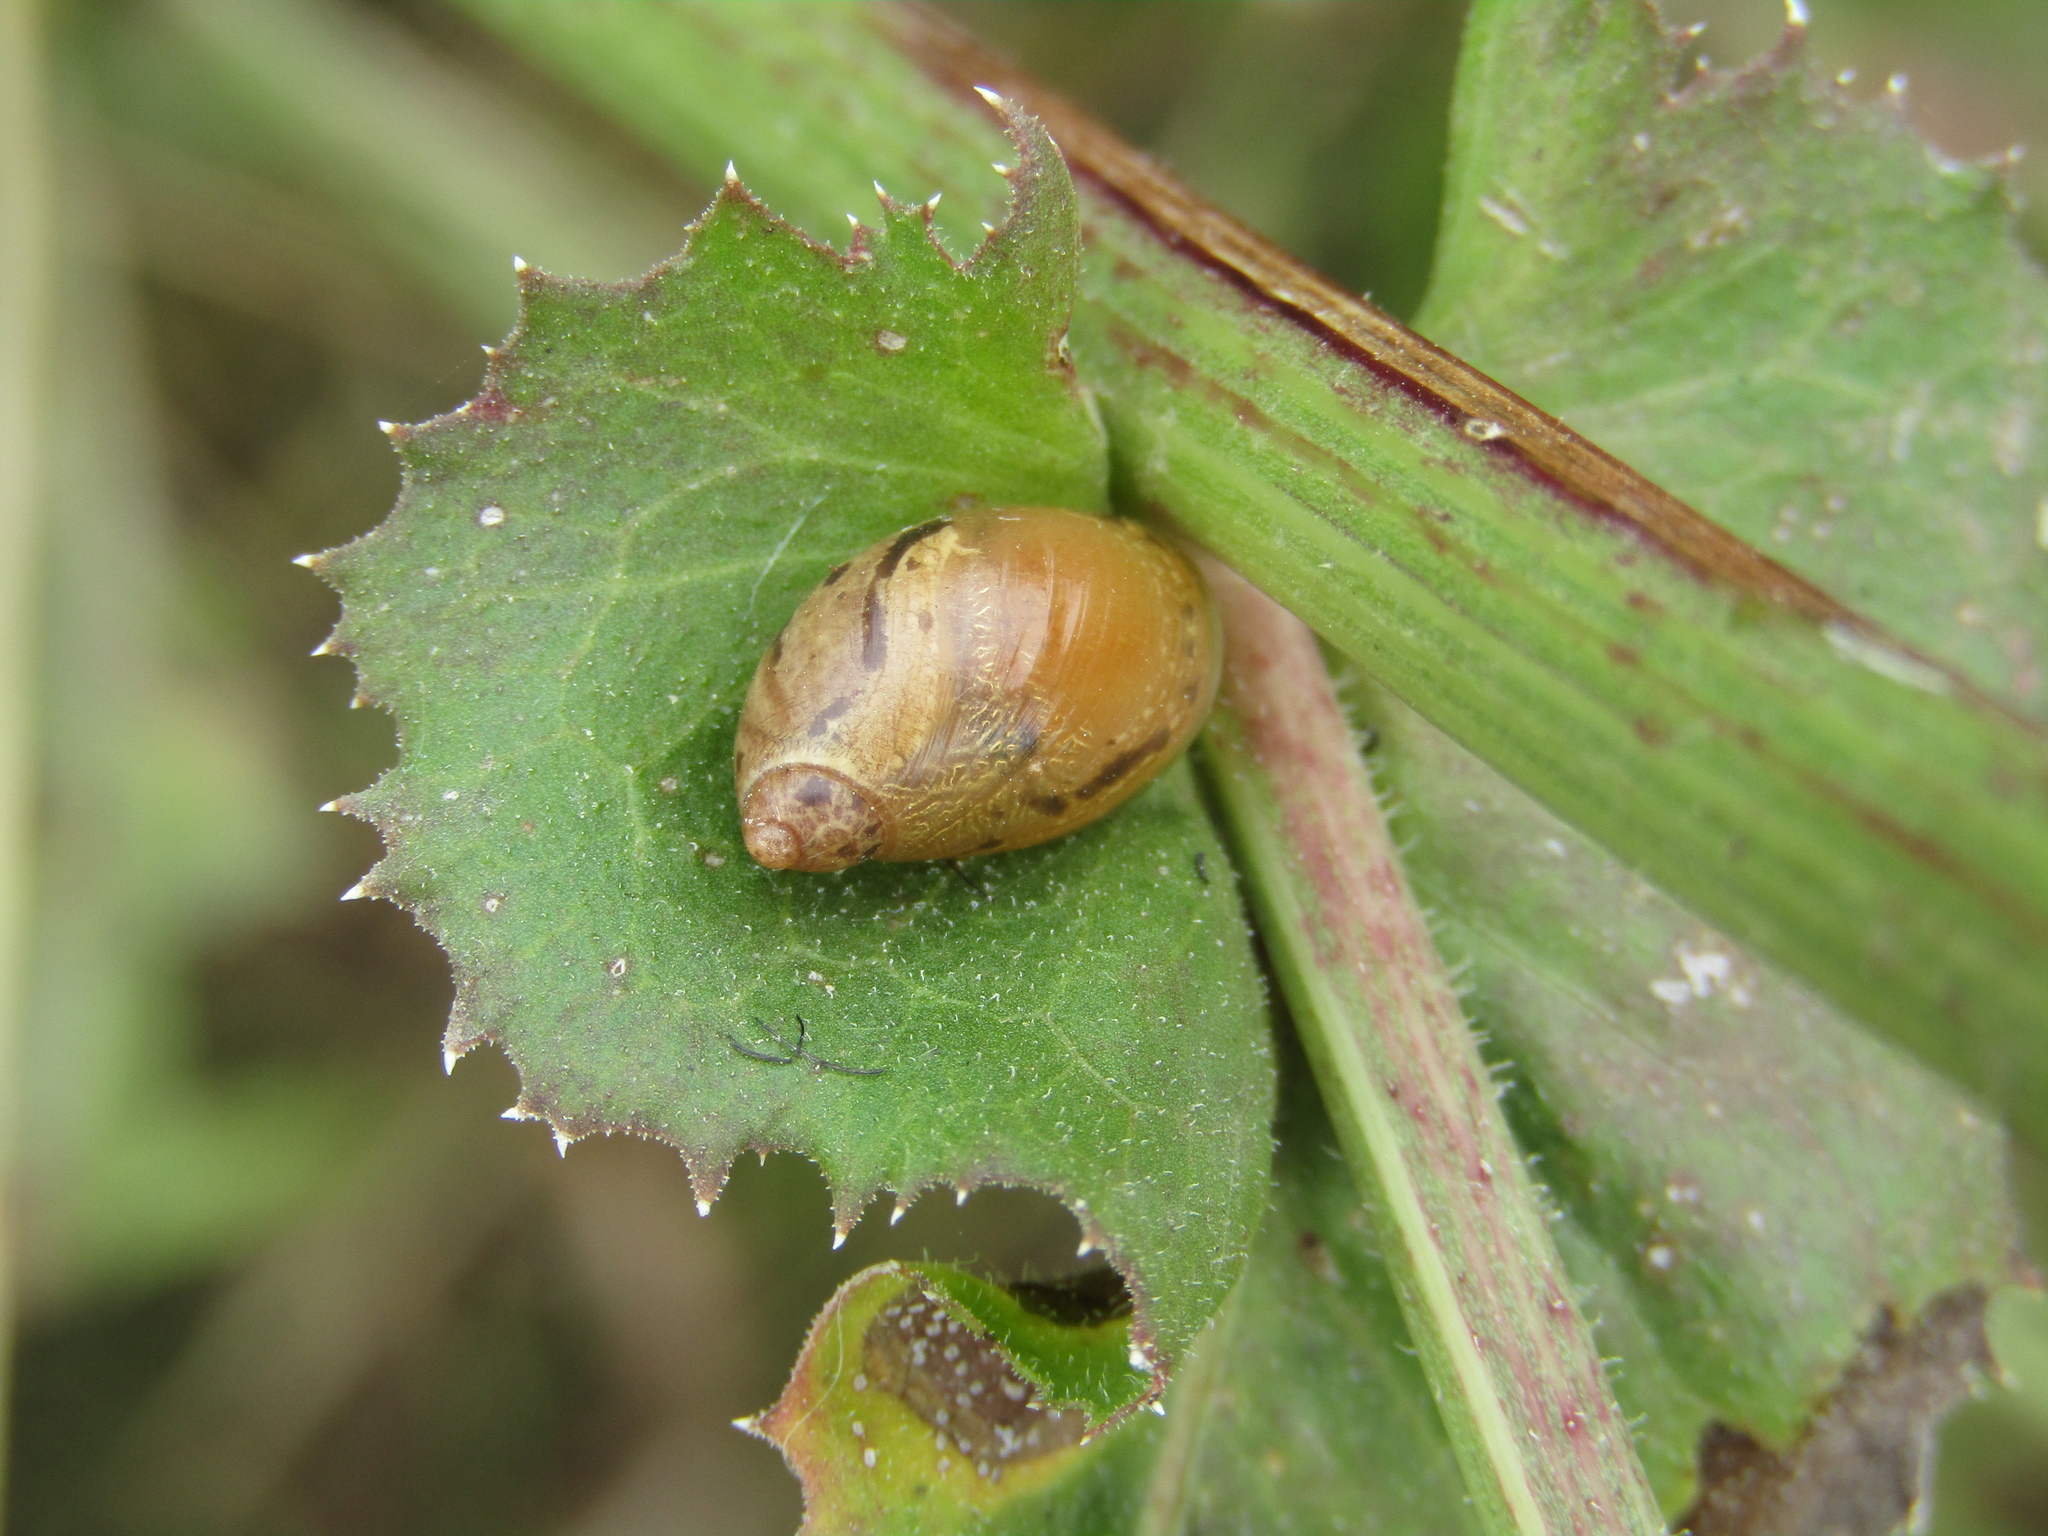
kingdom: Animalia
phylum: Mollusca
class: Gastropoda
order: Stylommatophora
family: Succineidae
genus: Succinea
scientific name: Succinea putris
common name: European ambersnail
